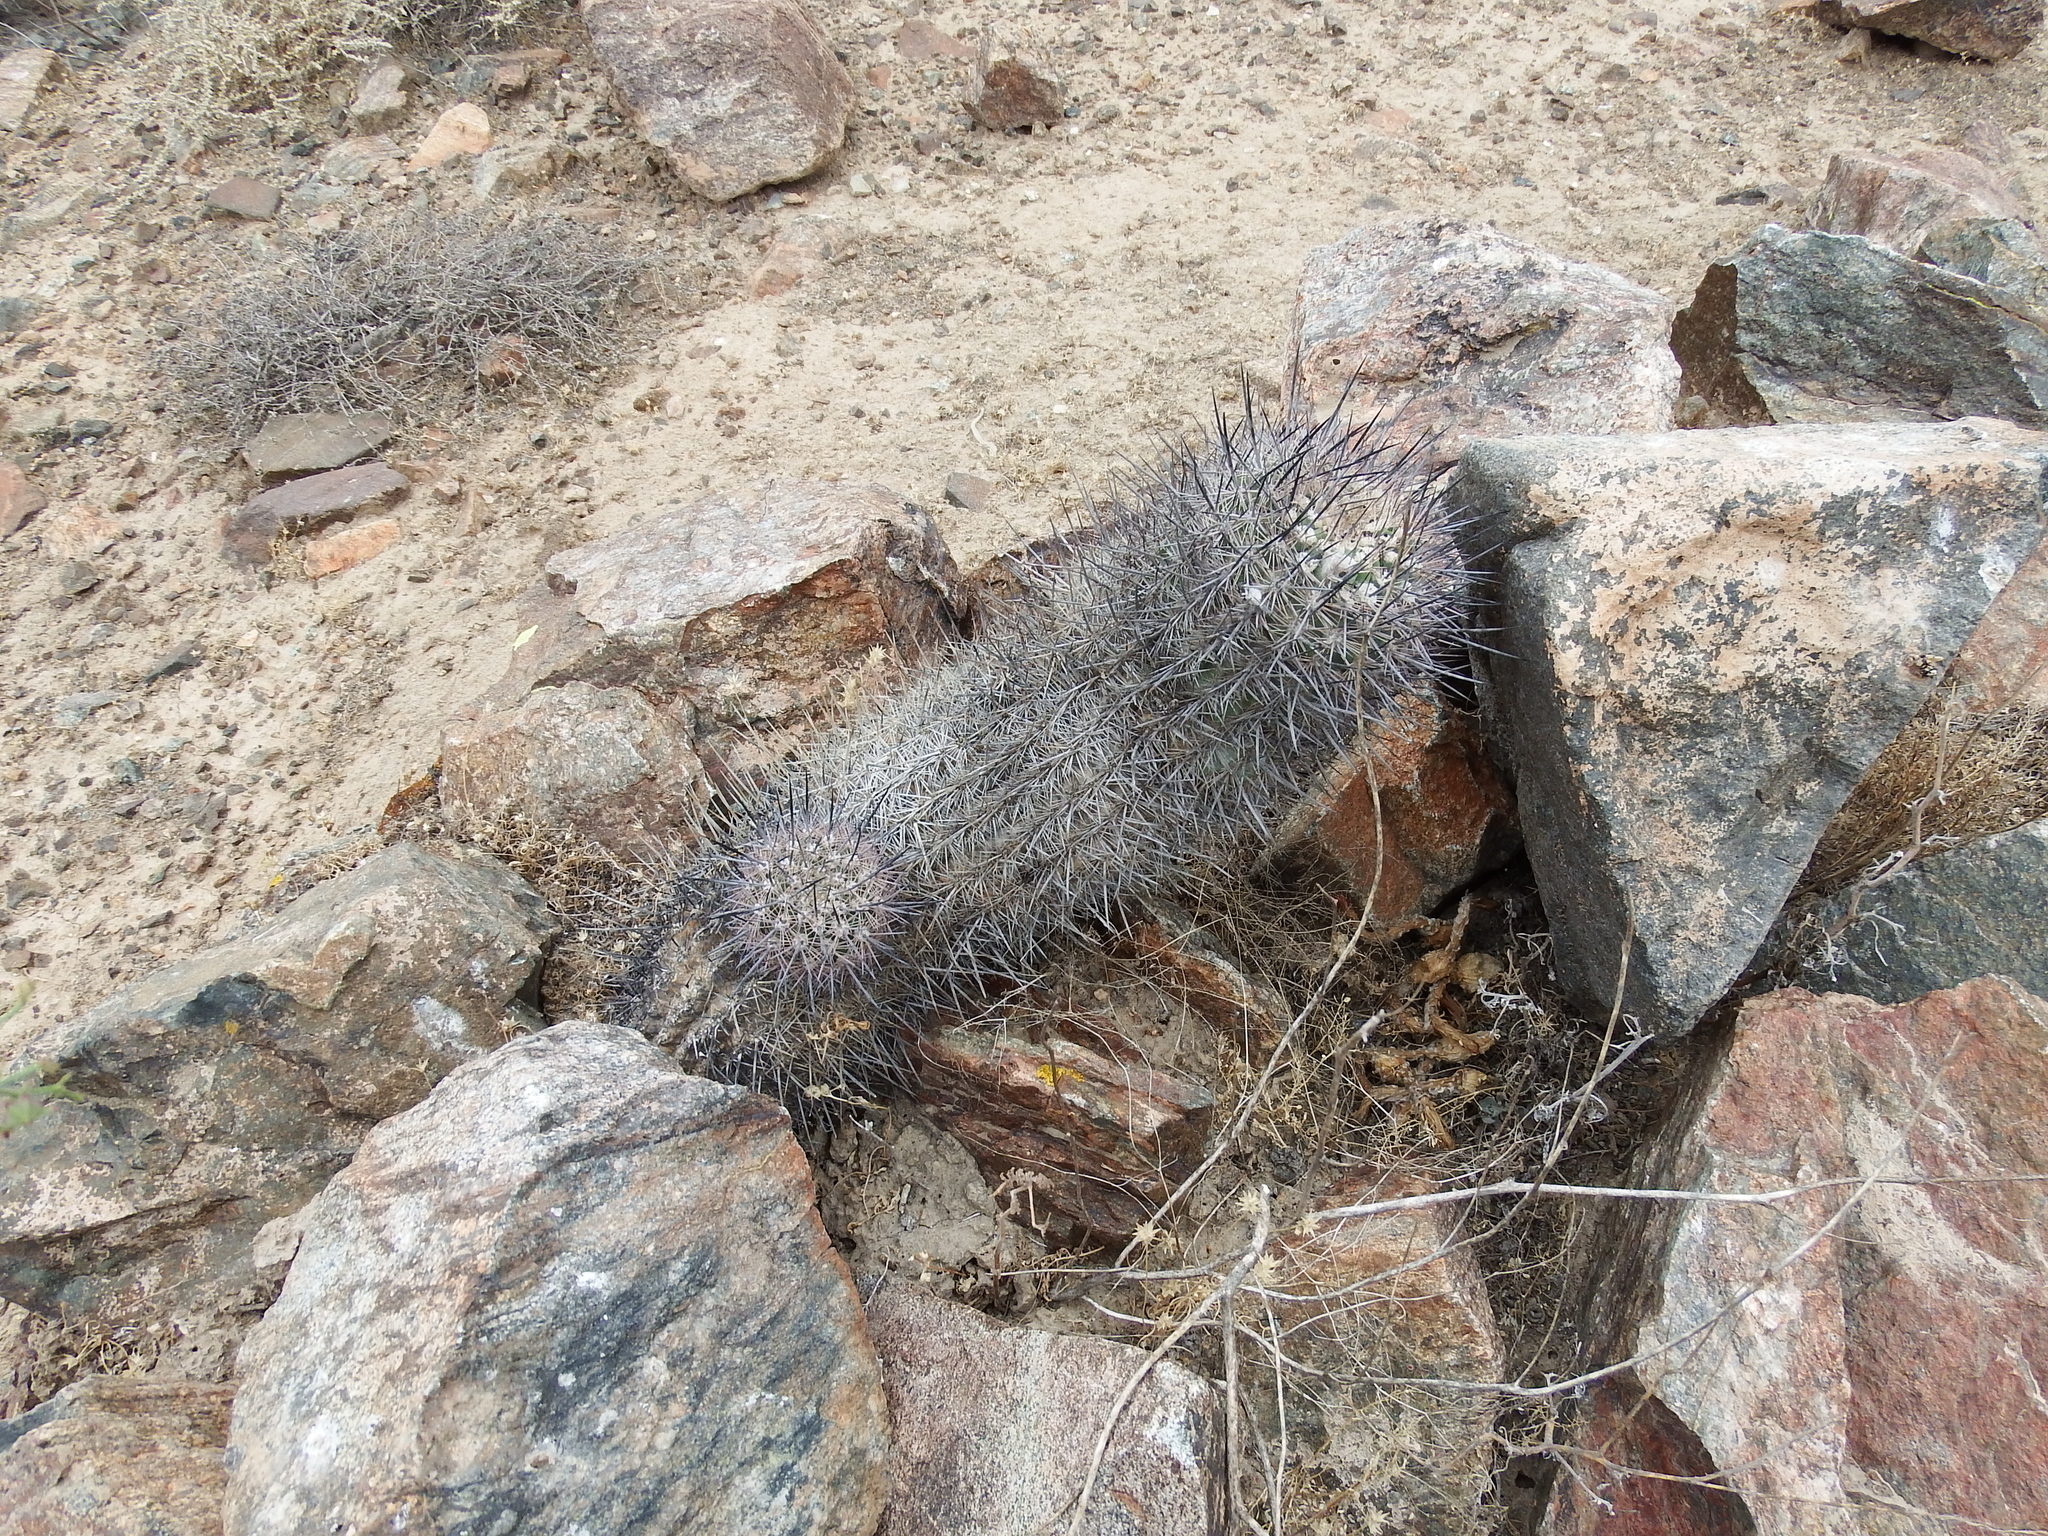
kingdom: Plantae
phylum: Tracheophyta
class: Magnoliopsida
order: Caryophyllales
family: Cactaceae
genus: Oreocereus
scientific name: Oreocereus hempelianus
